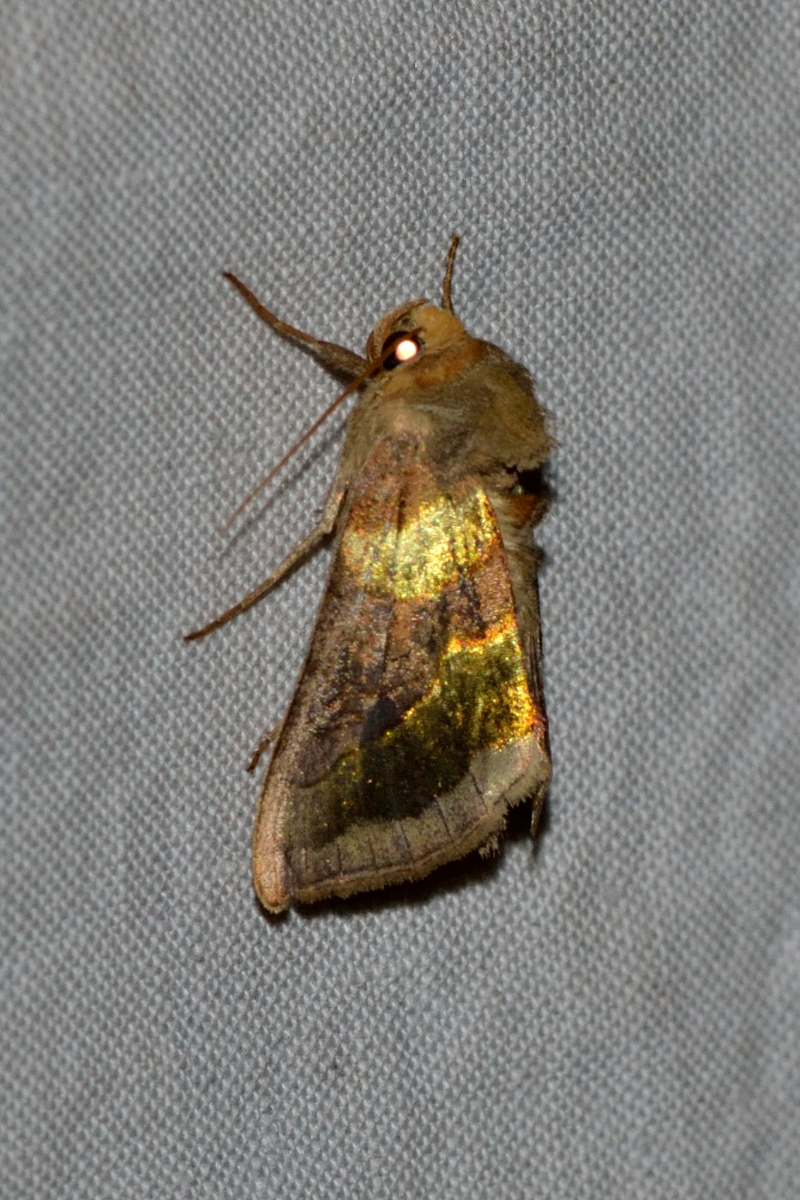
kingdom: Animalia
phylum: Arthropoda
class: Insecta
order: Lepidoptera
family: Noctuidae
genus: Diachrysia
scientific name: Diachrysia chrysitis
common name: Burnished brass
